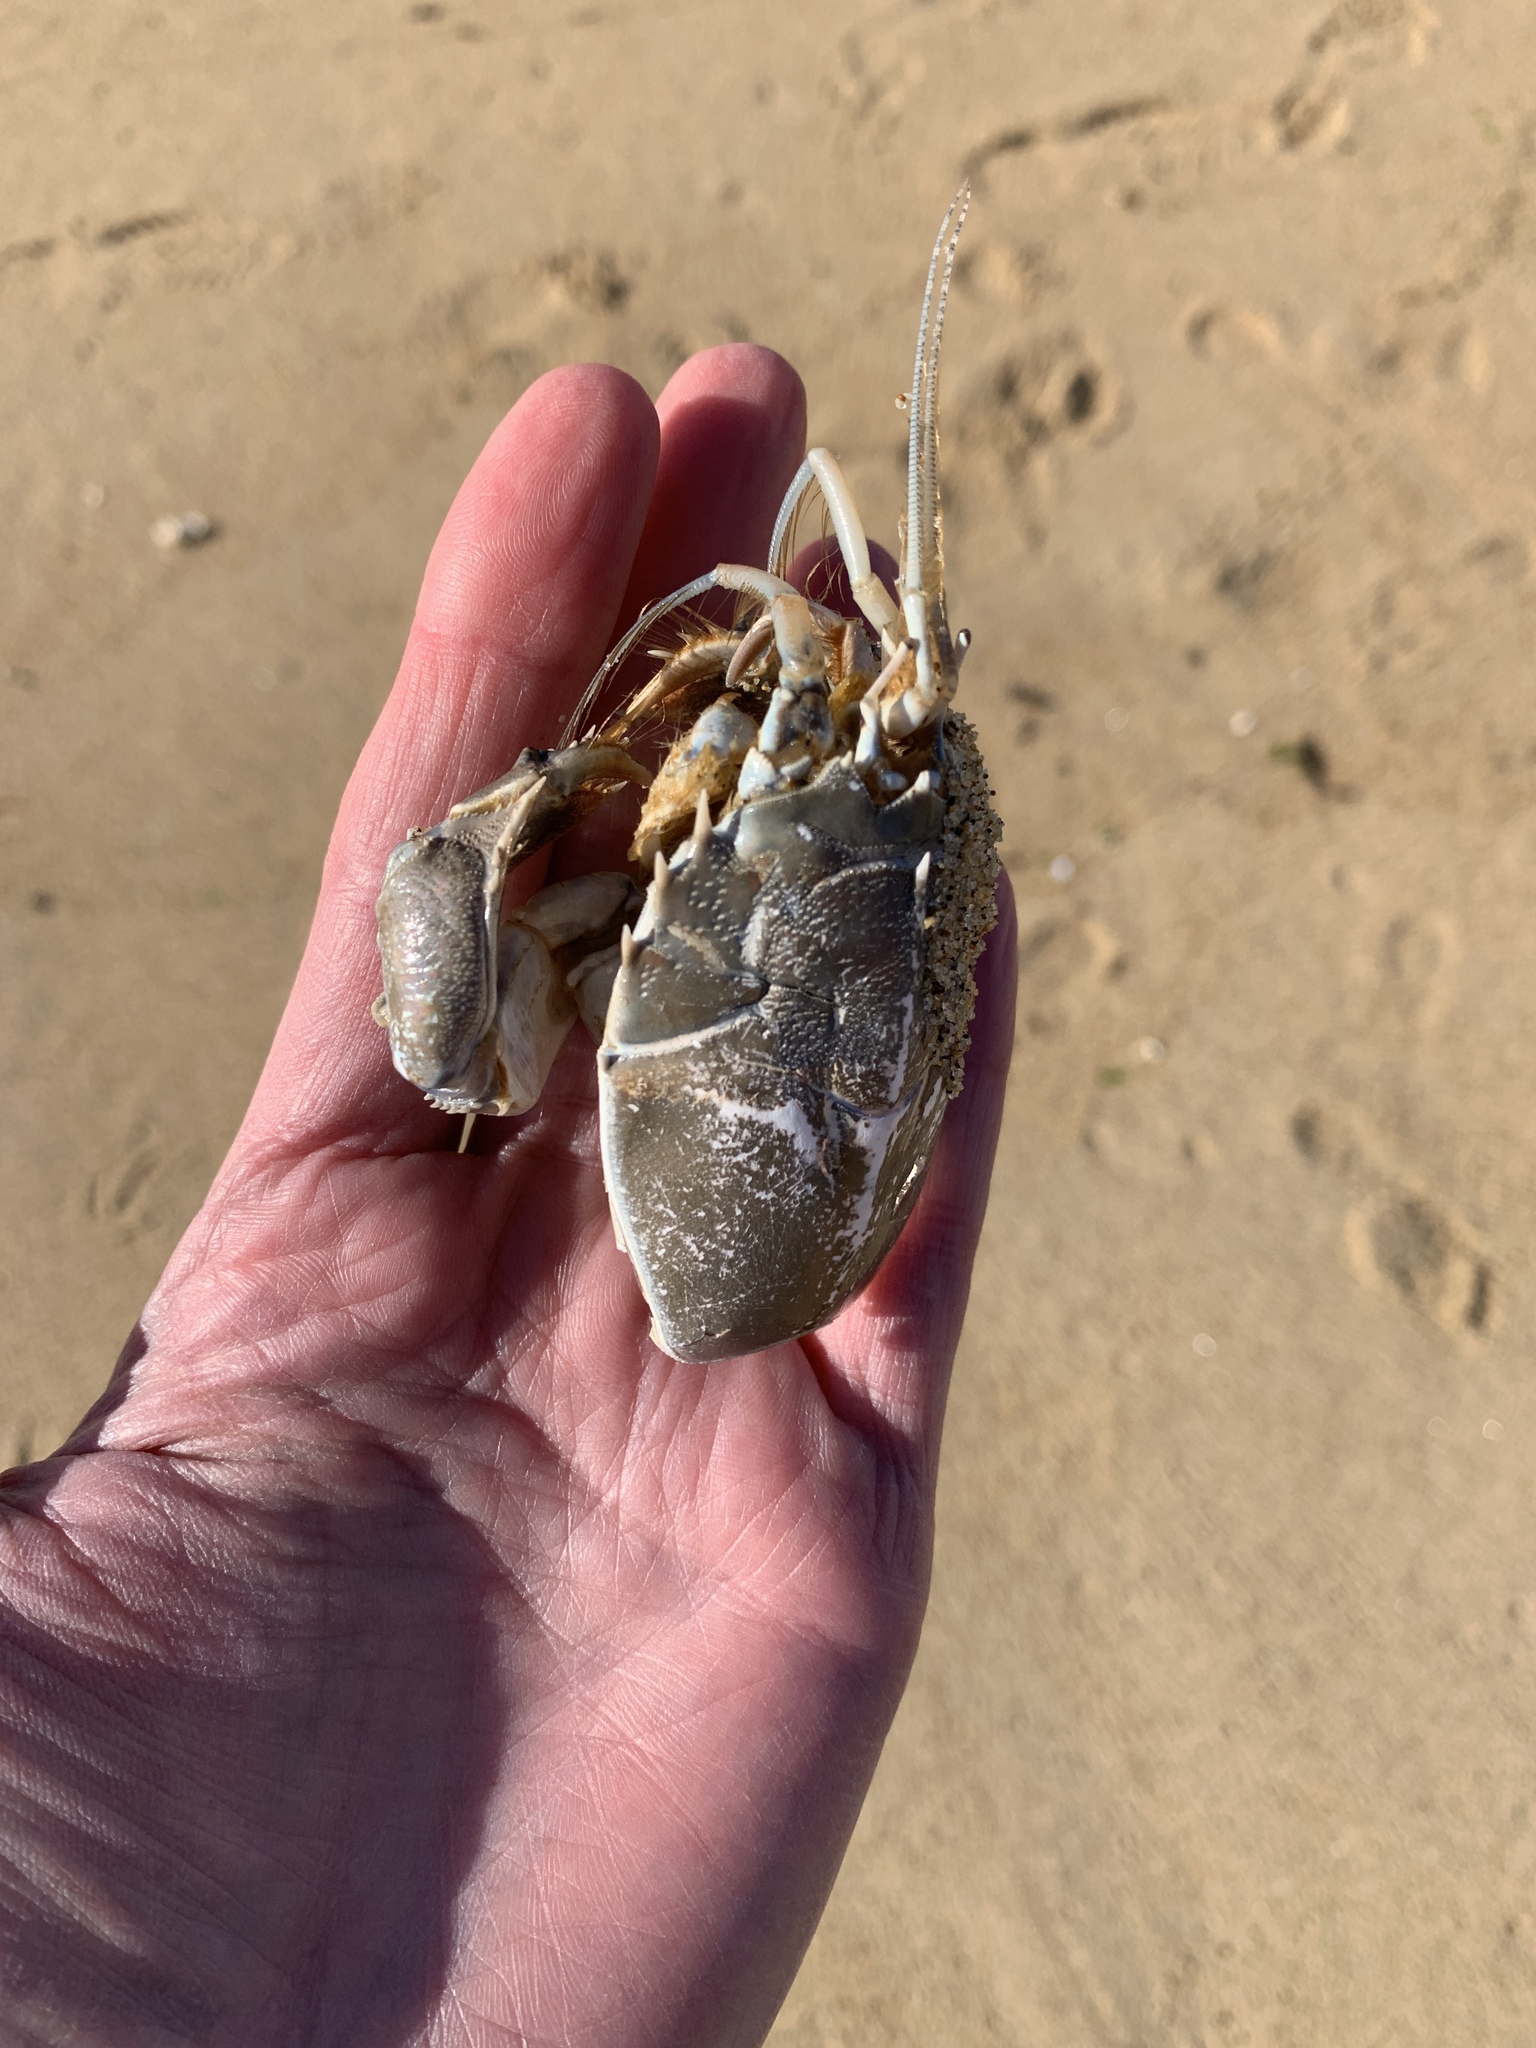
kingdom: Animalia
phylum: Arthropoda
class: Malacostraca
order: Decapoda
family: Blepharipodidae
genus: Blepharipoda
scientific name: Blepharipoda occidentalis
